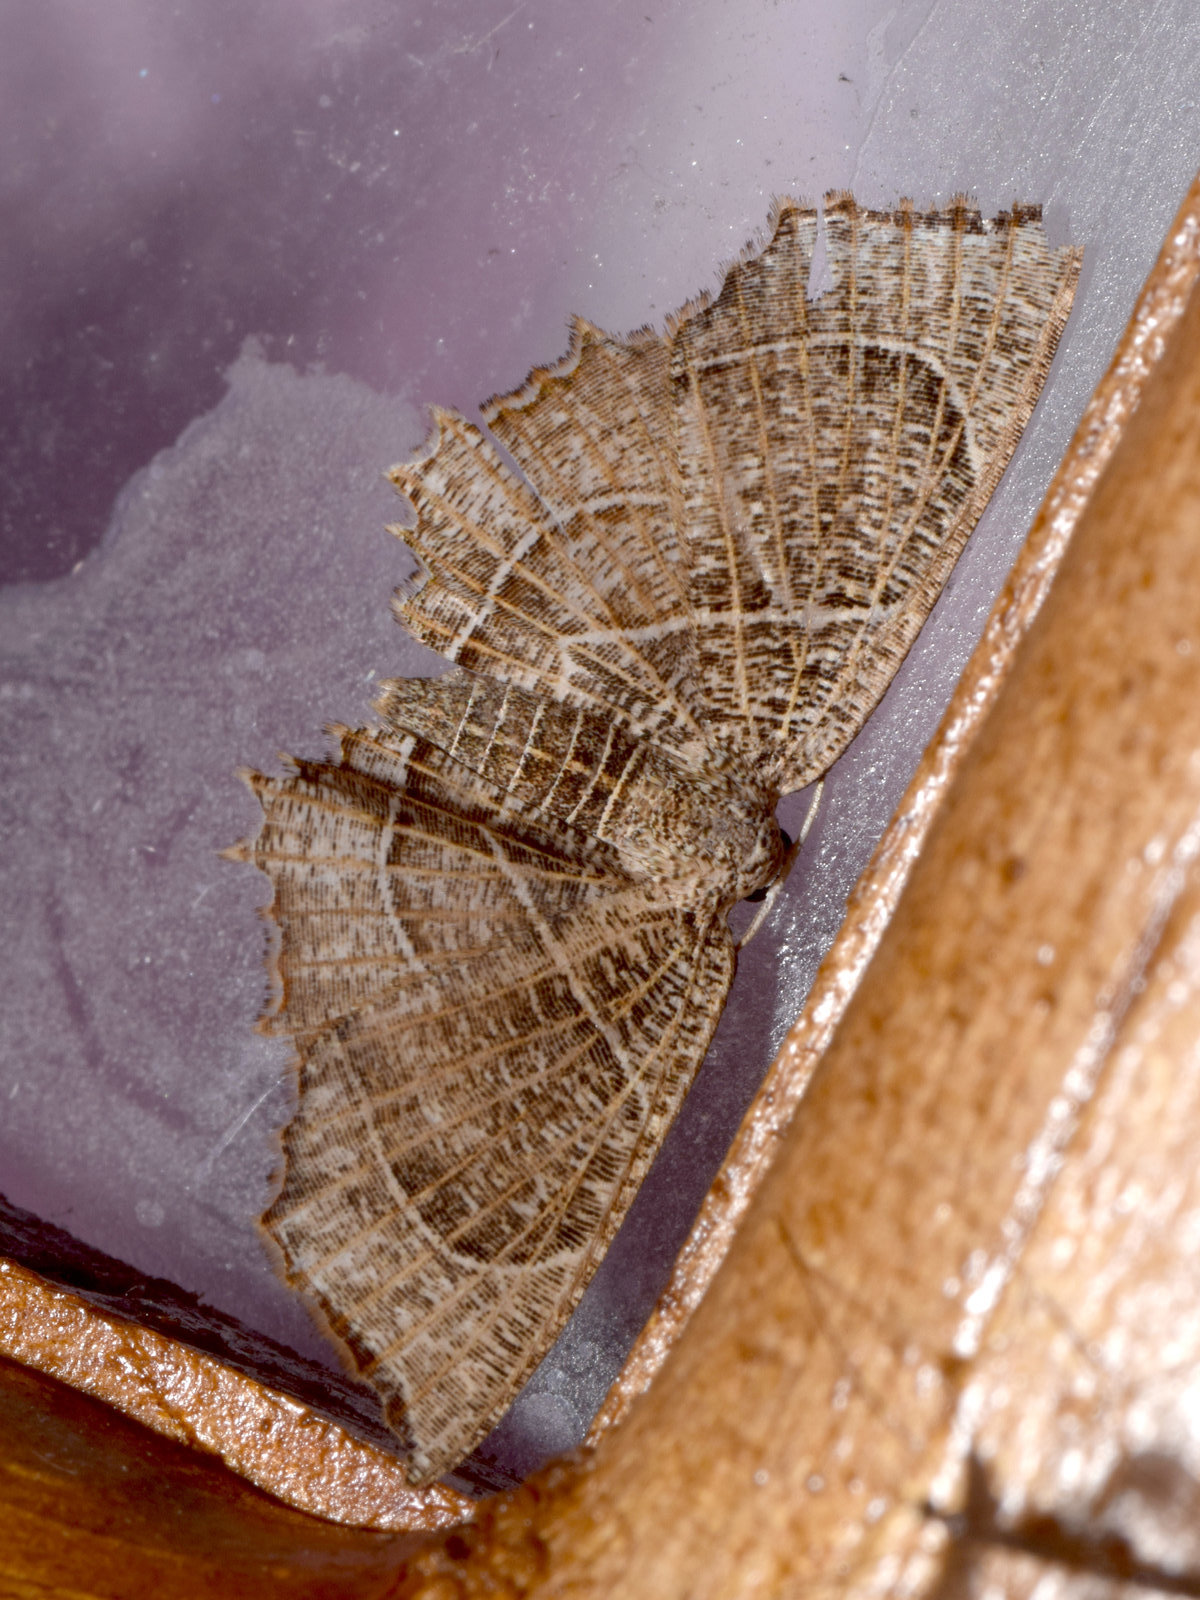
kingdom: Animalia
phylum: Arthropoda
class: Insecta
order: Lepidoptera
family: Uraniidae
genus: Epiplema
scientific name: Epiplema
